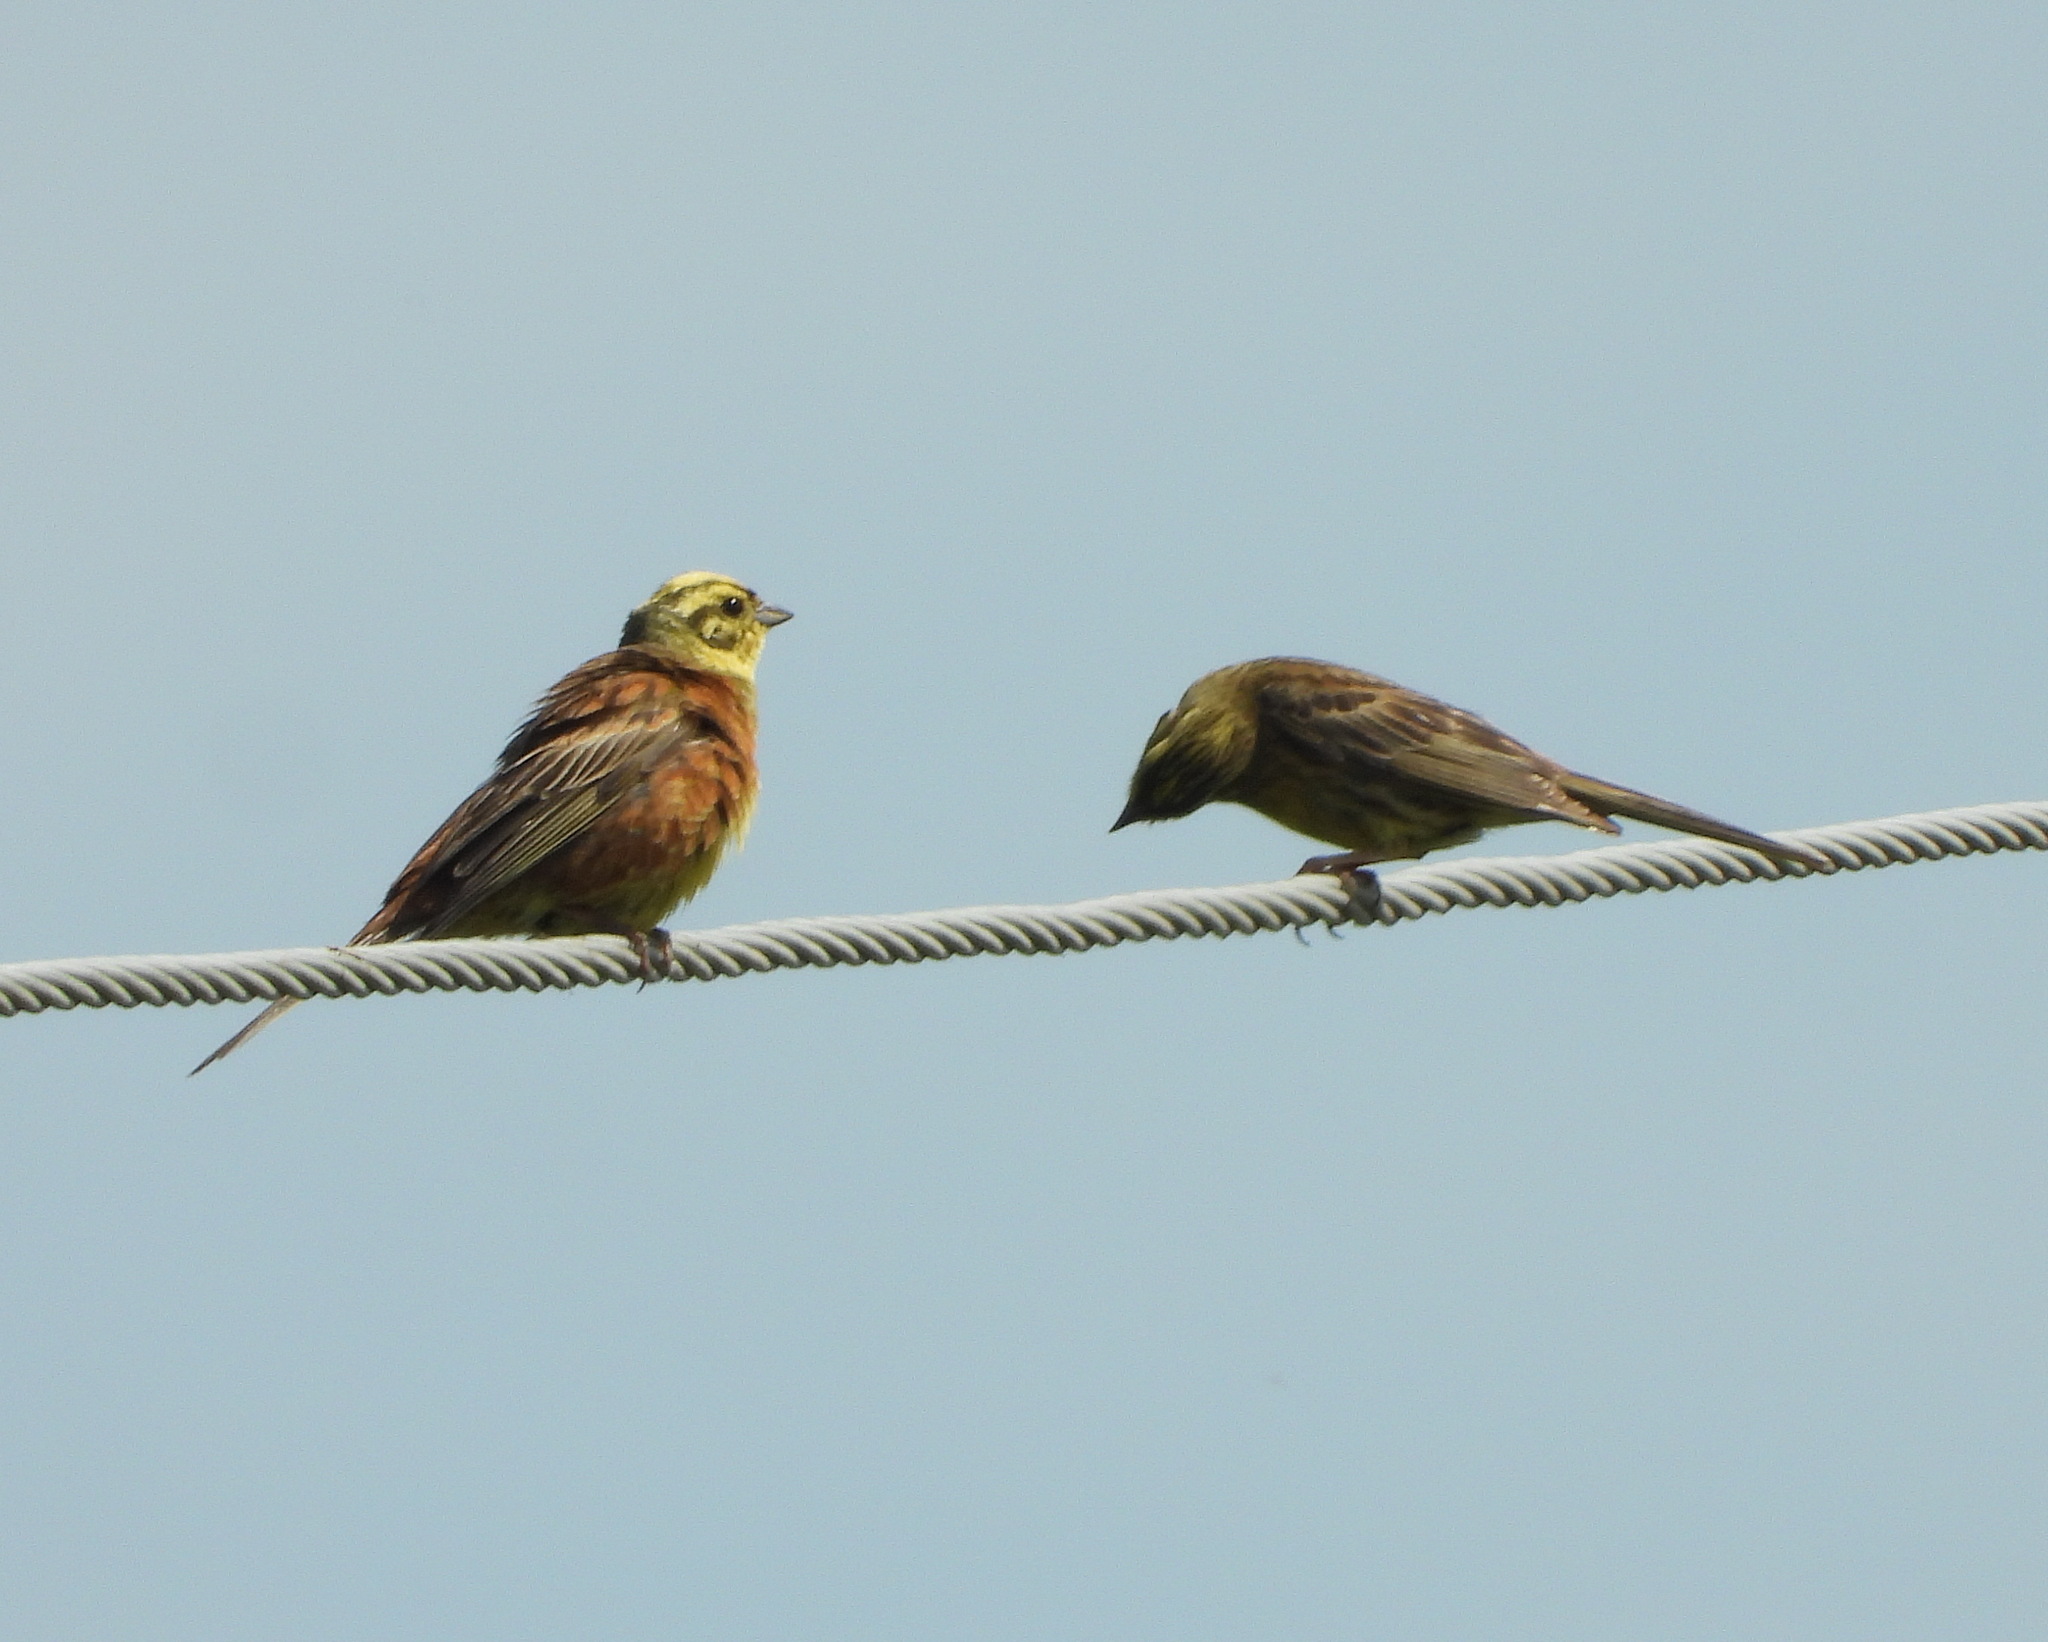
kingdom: Animalia
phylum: Chordata
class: Aves
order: Passeriformes
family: Emberizidae
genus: Emberiza
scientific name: Emberiza citrinella
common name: Yellowhammer
